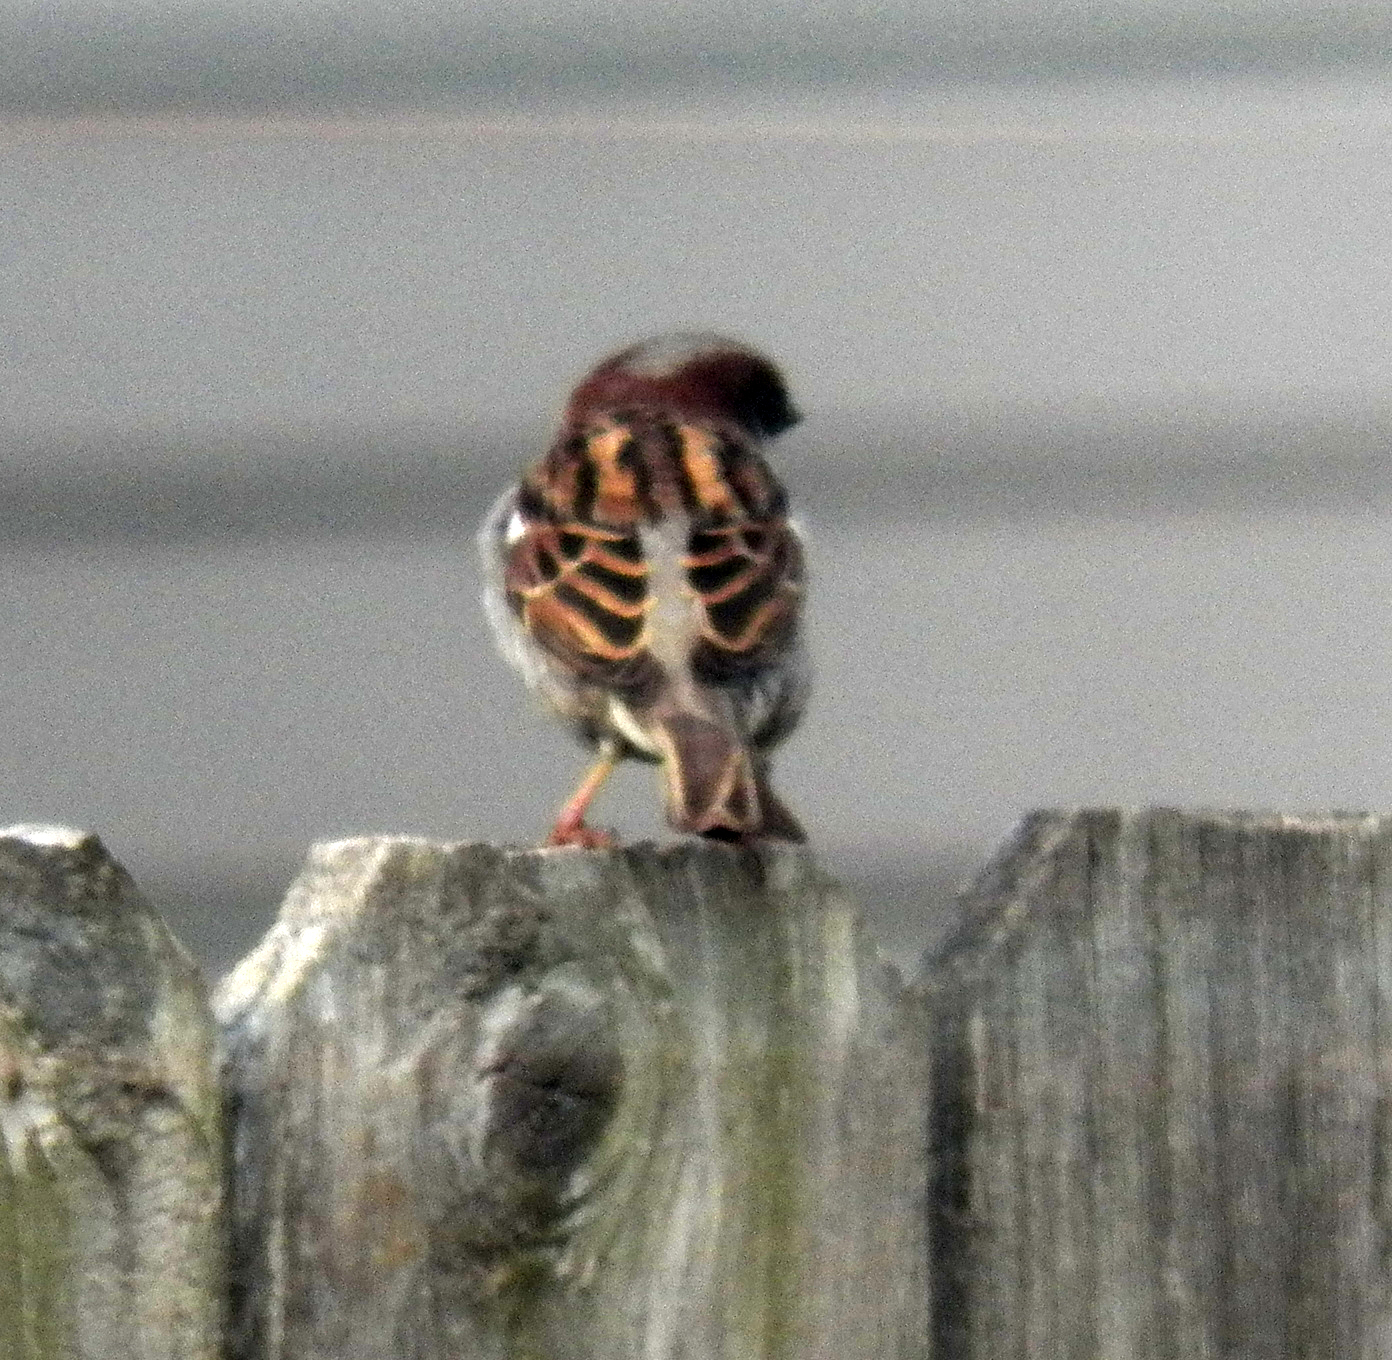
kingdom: Animalia
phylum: Chordata
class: Aves
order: Passeriformes
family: Passeridae
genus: Passer
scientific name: Passer domesticus
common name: House sparrow
